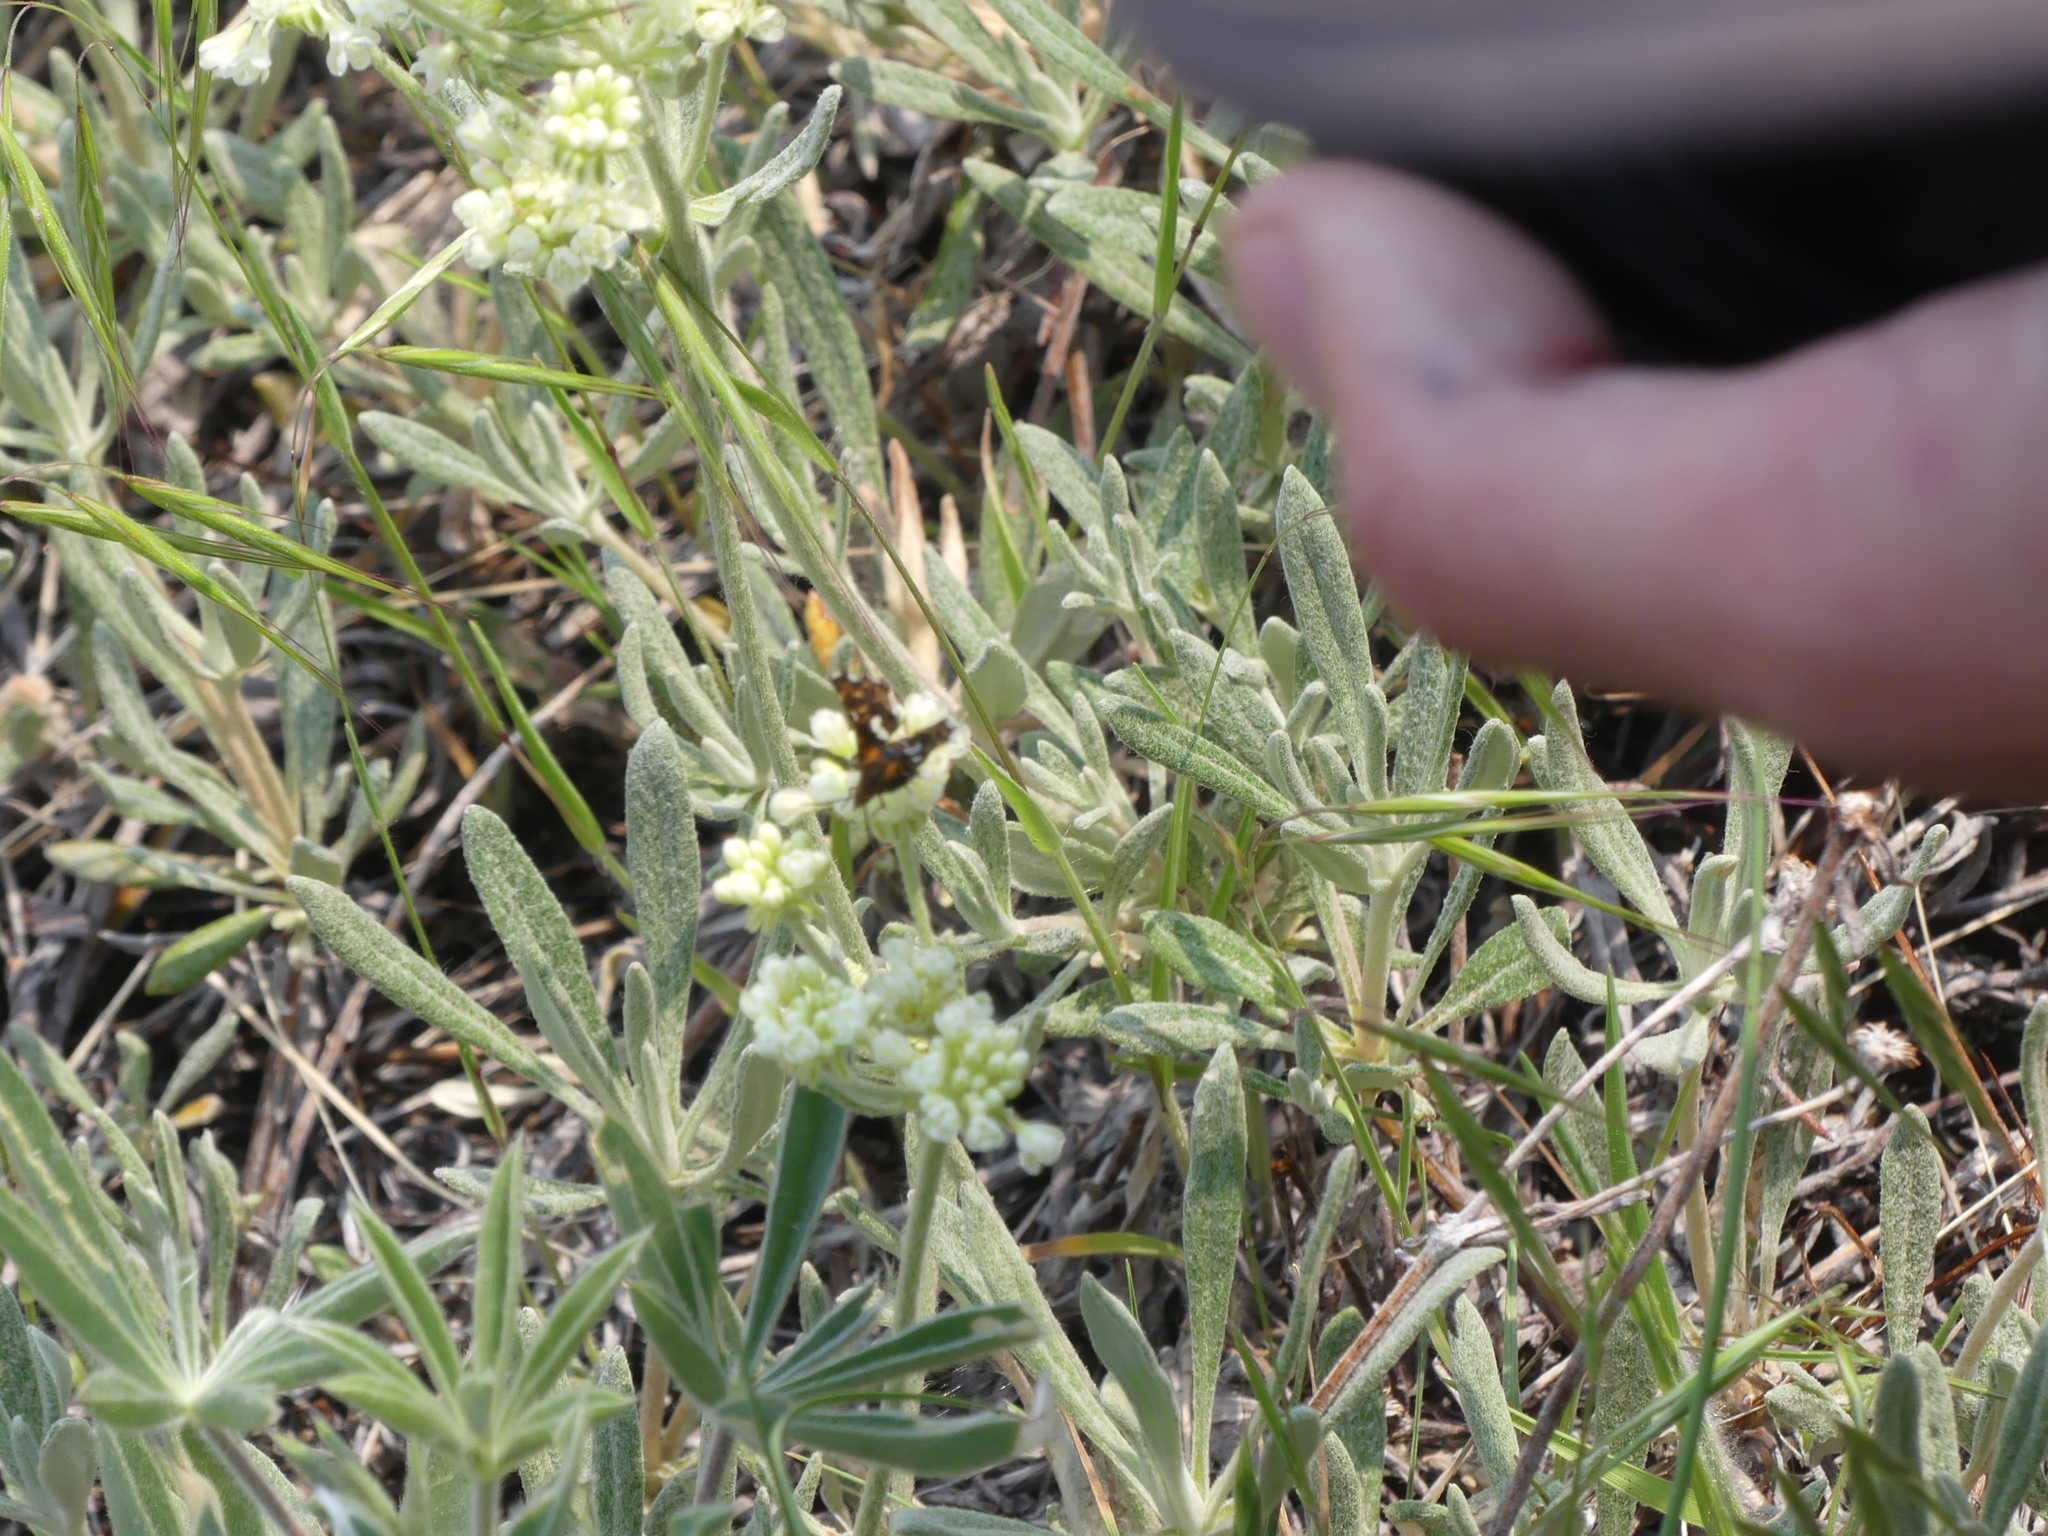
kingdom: Animalia
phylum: Arthropoda
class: Insecta
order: Lepidoptera
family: Thyrididae
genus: Thyris
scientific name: Thyris maculata
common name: Spotted thyris moth
